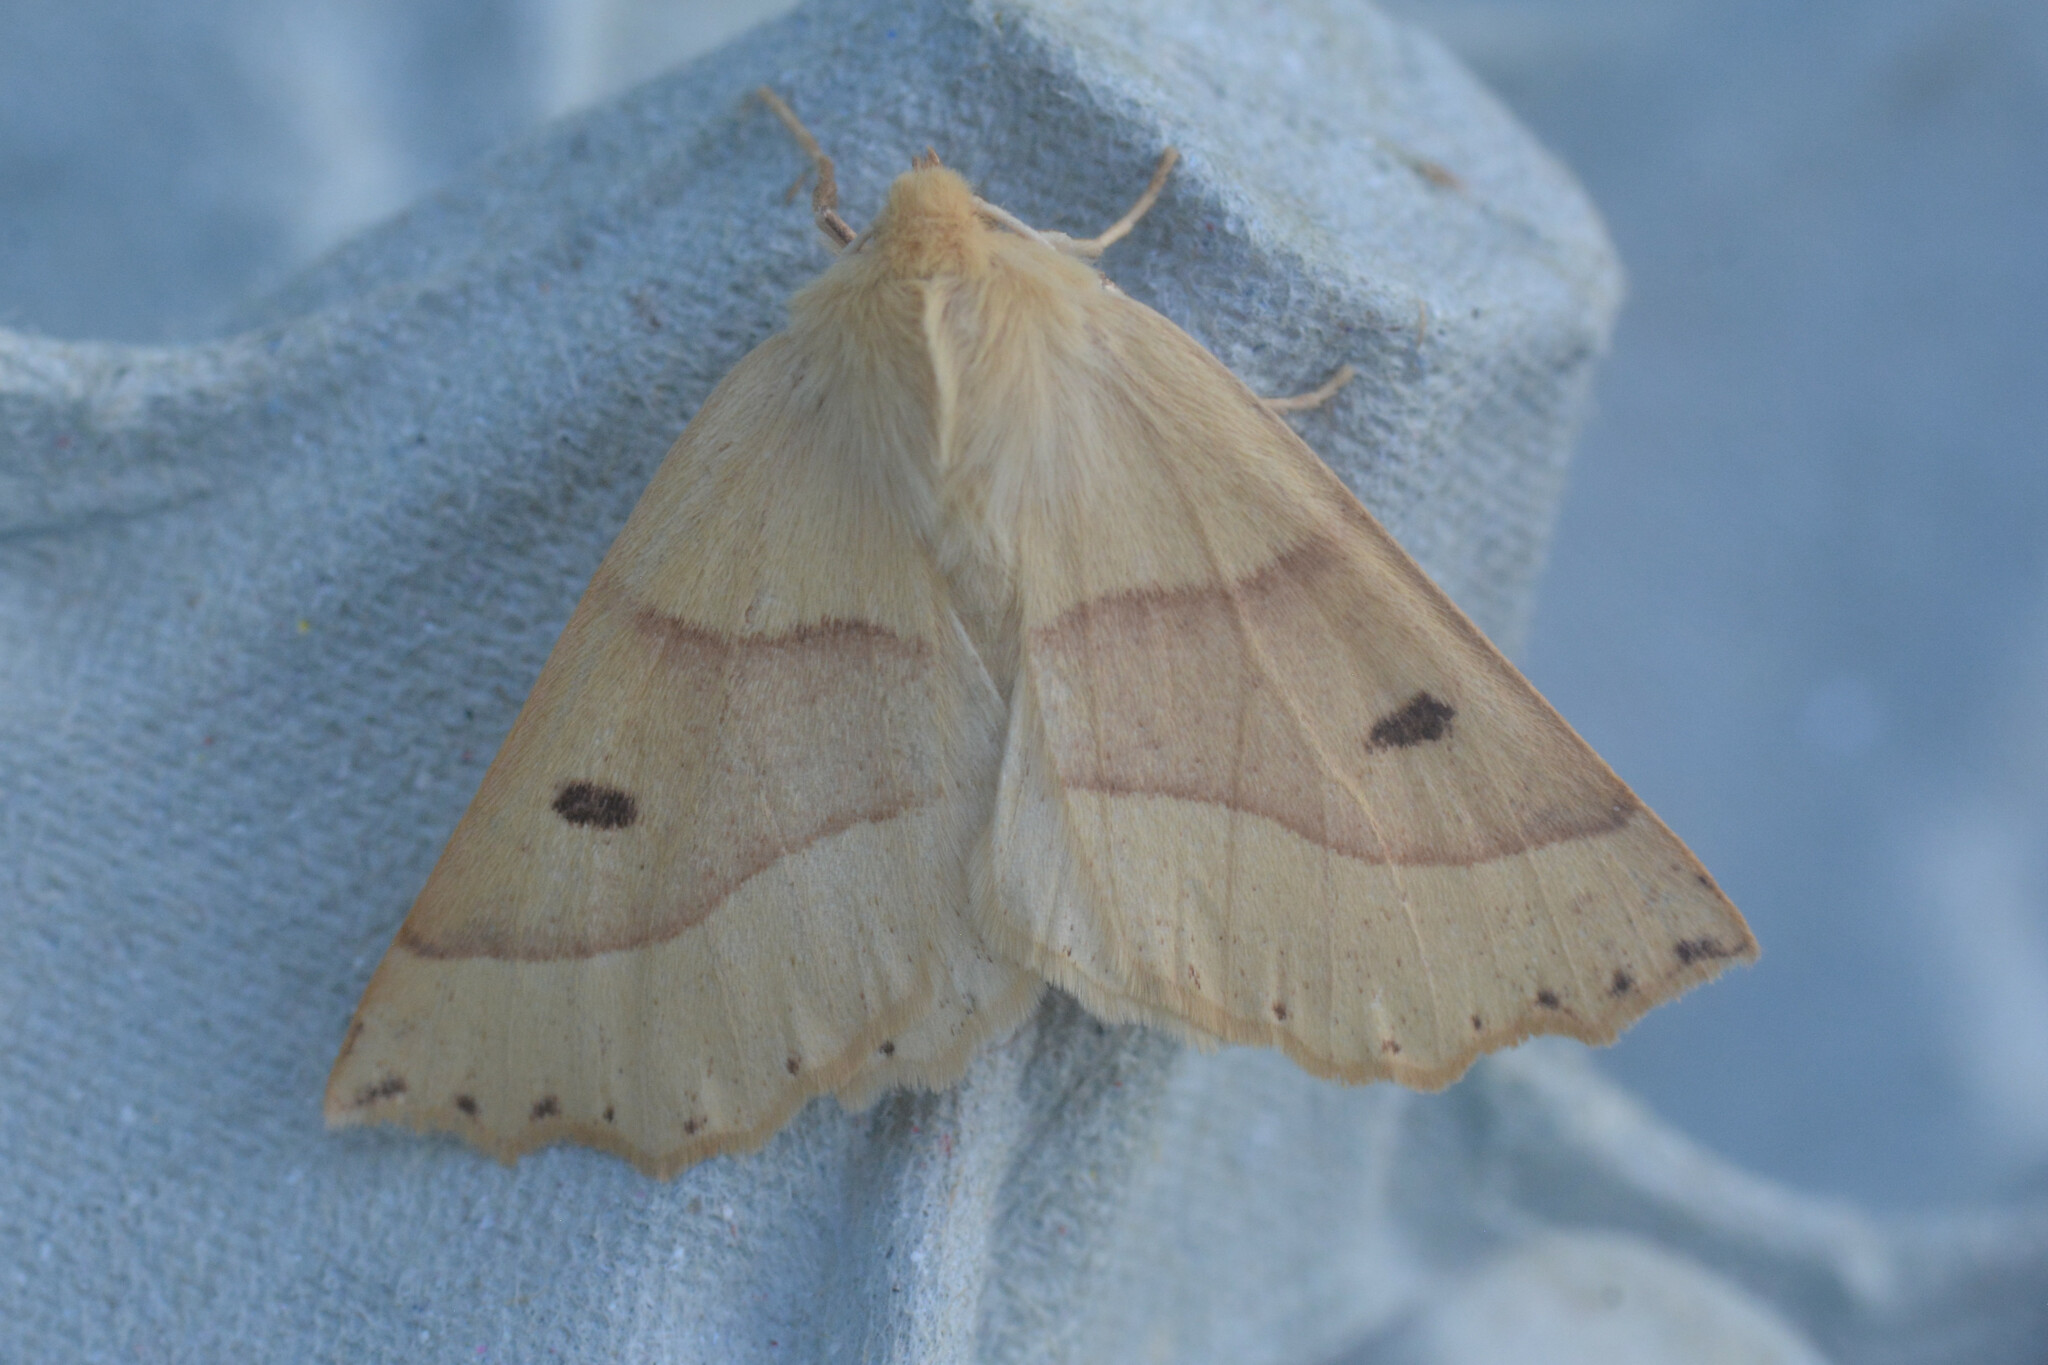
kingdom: Animalia
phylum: Arthropoda
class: Insecta
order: Lepidoptera
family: Geometridae
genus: Crocallis
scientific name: Crocallis elinguaria
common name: Scalloped oak
